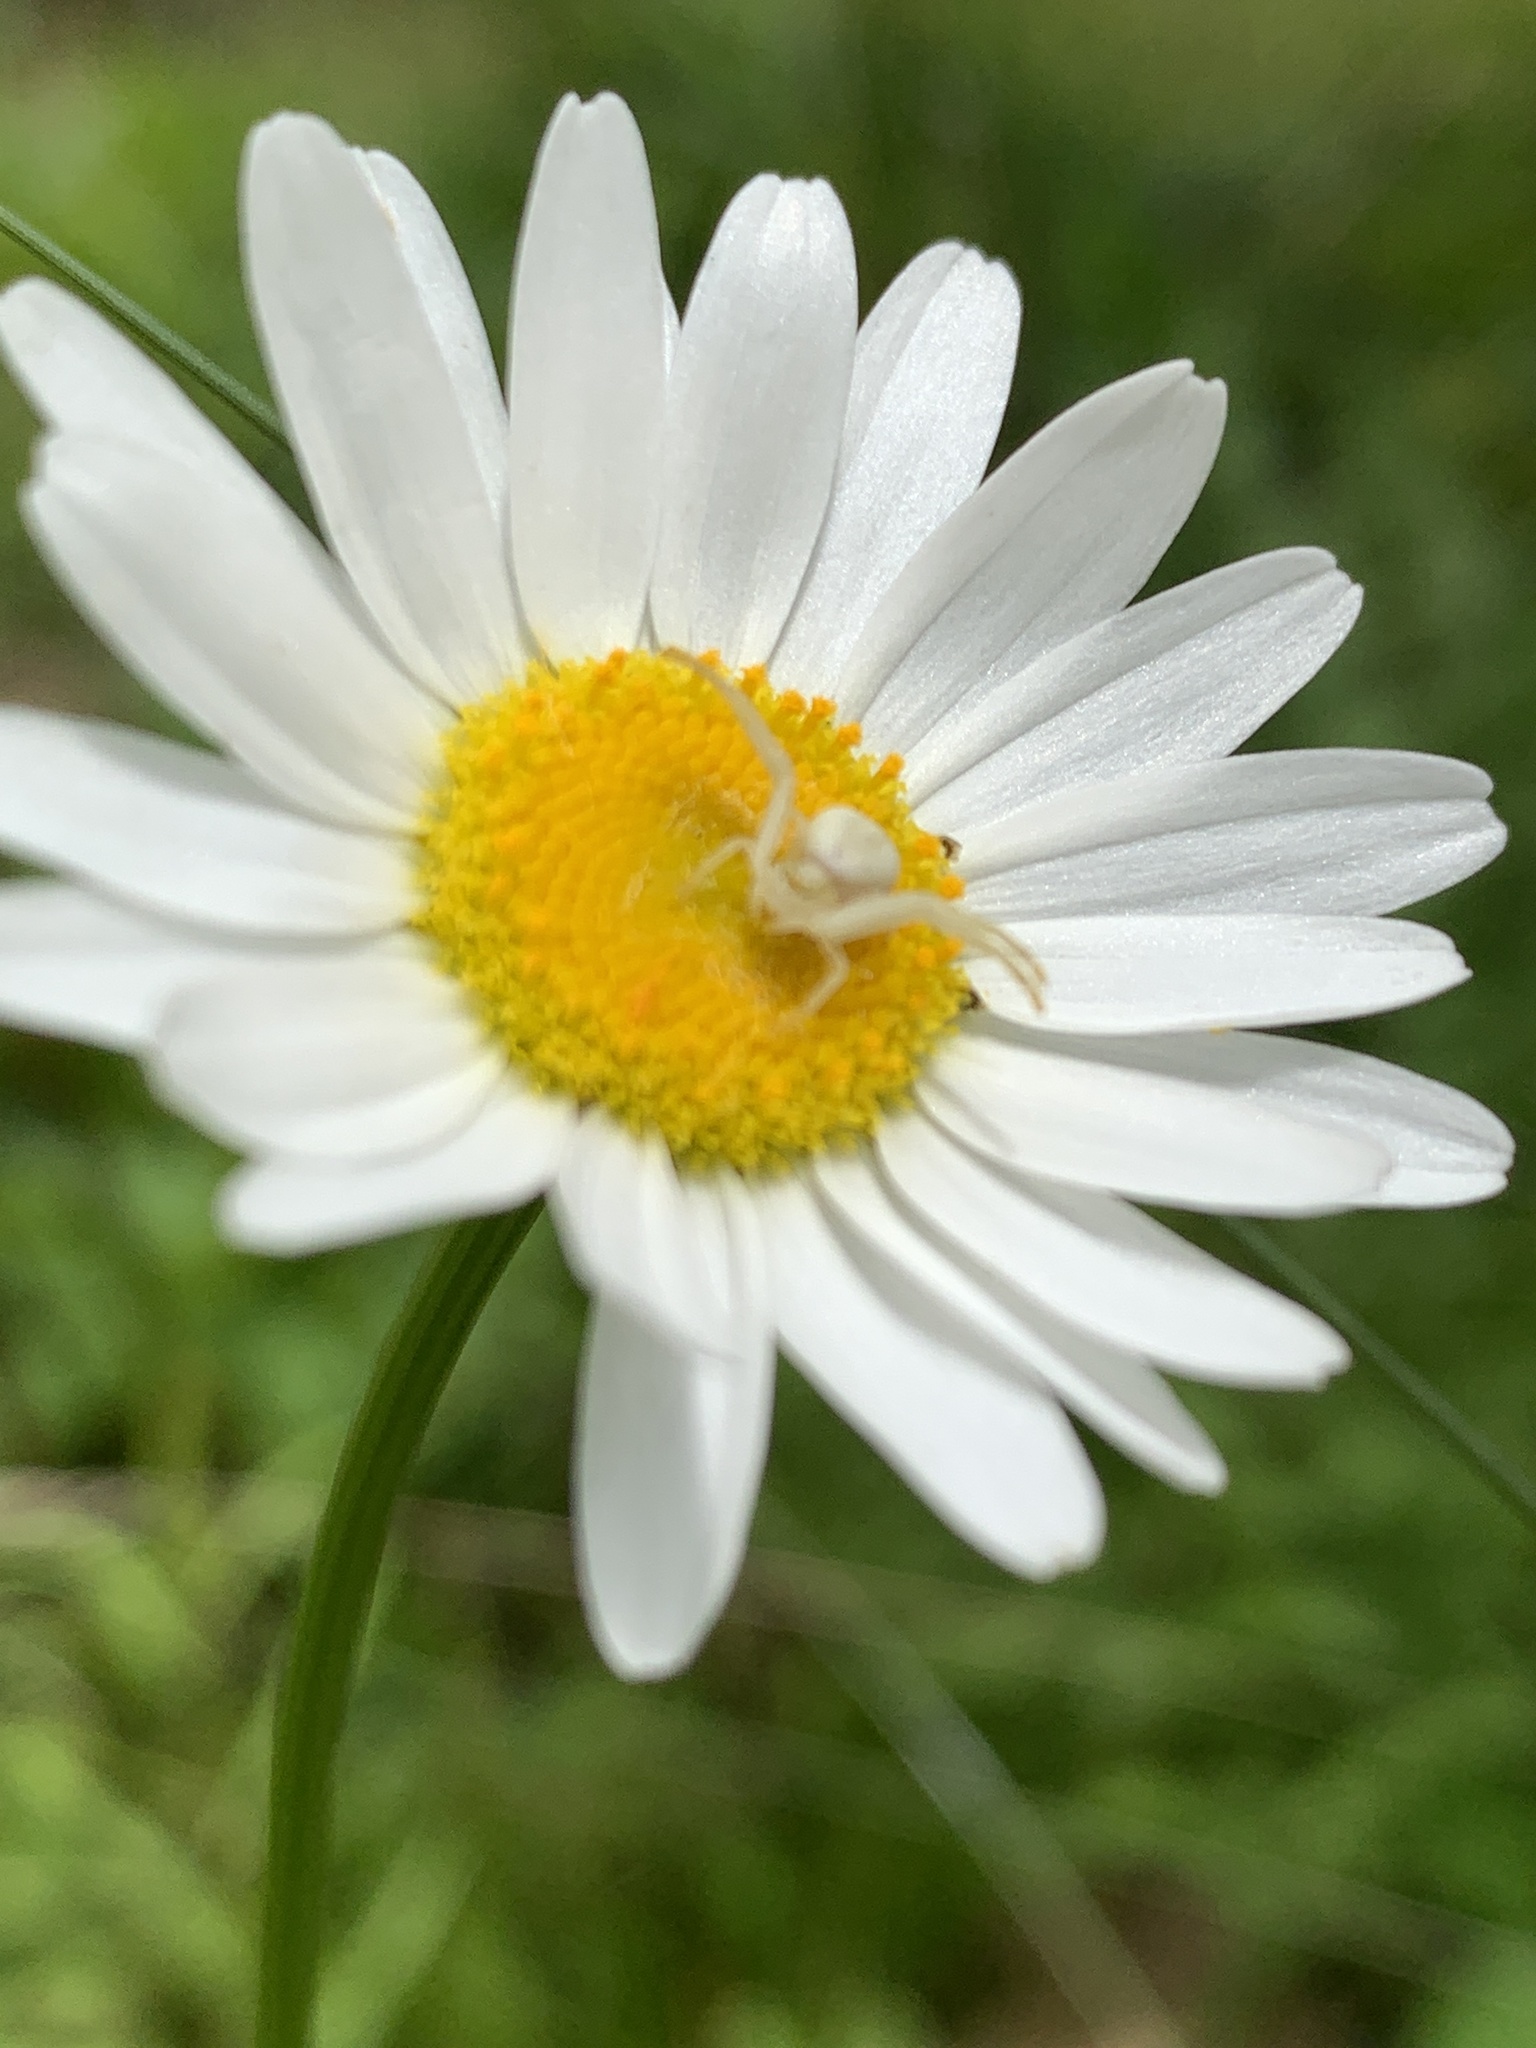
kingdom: Animalia
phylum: Arthropoda
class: Arachnida
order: Araneae
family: Thomisidae
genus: Misumena
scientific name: Misumena vatia
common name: Goldenrod crab spider
